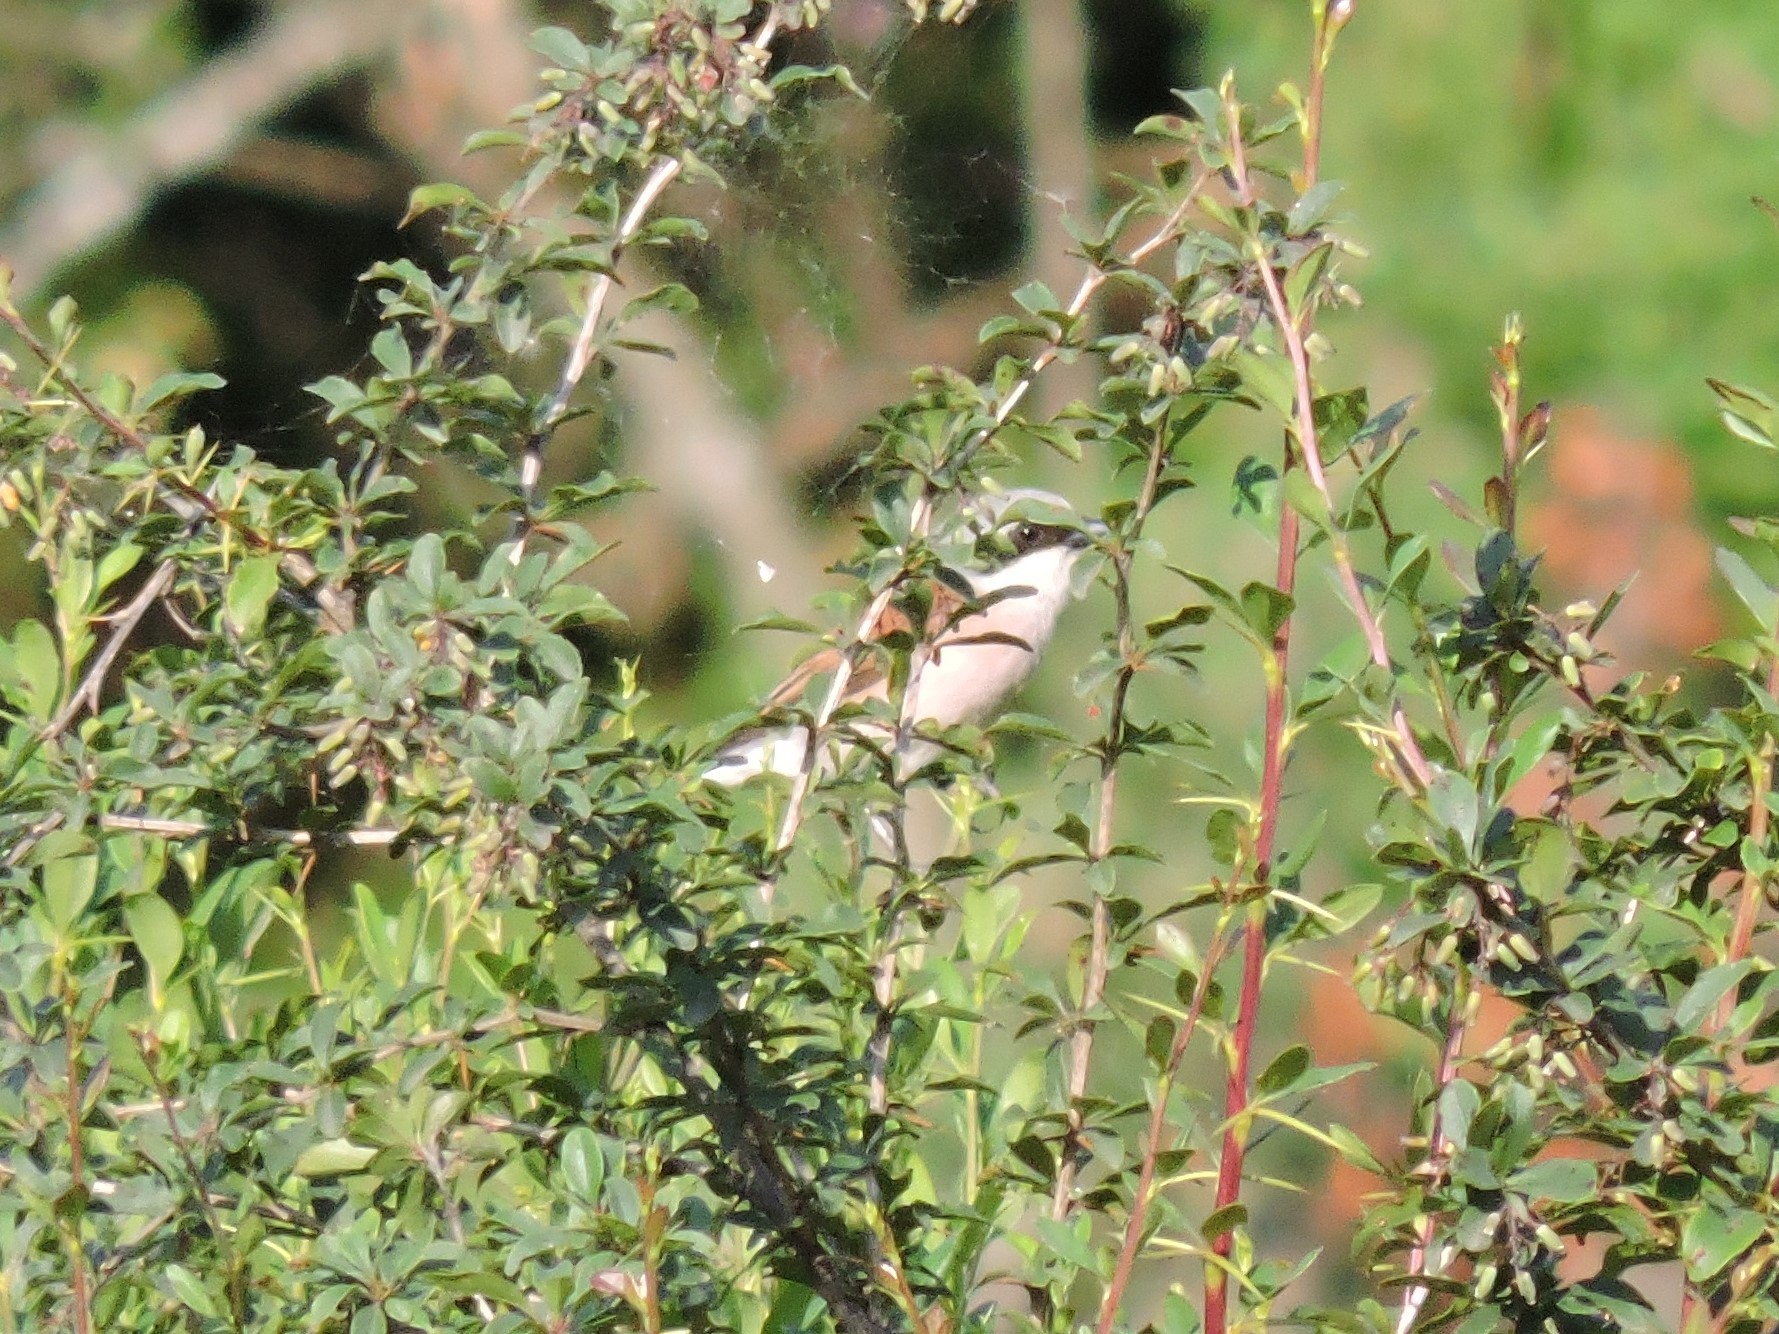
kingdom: Animalia
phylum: Chordata
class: Aves
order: Passeriformes
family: Laniidae
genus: Lanius
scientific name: Lanius collurio
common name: Red-backed shrike
